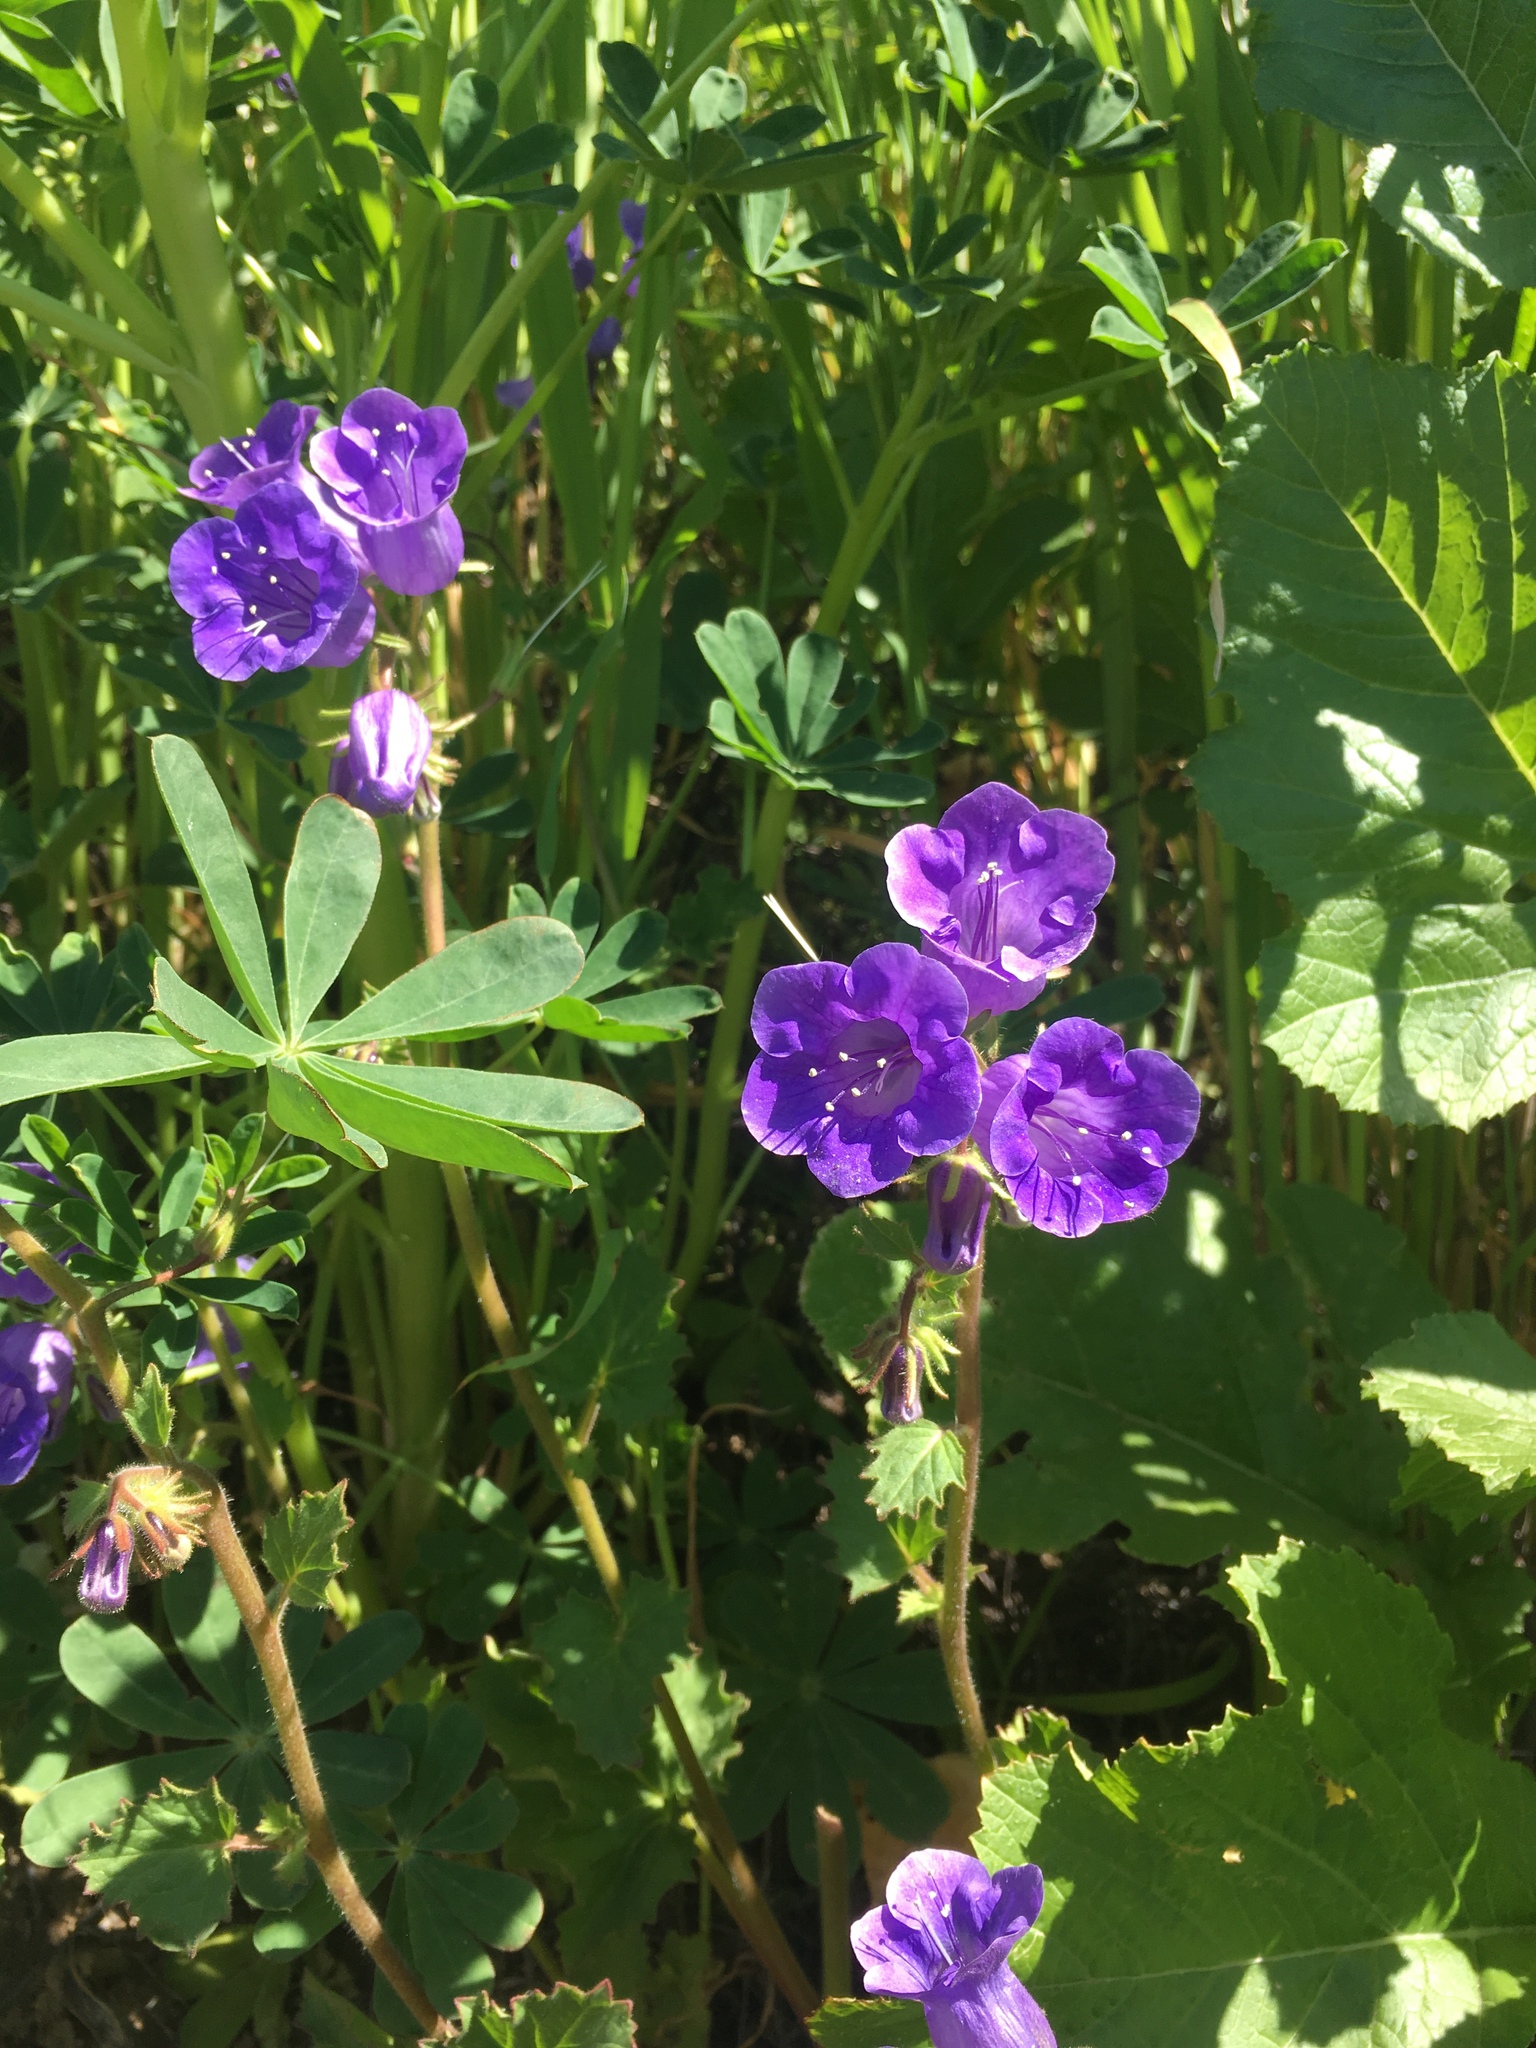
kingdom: Plantae
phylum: Tracheophyta
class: Magnoliopsida
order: Boraginales
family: Hydrophyllaceae
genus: Phacelia
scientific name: Phacelia minor
